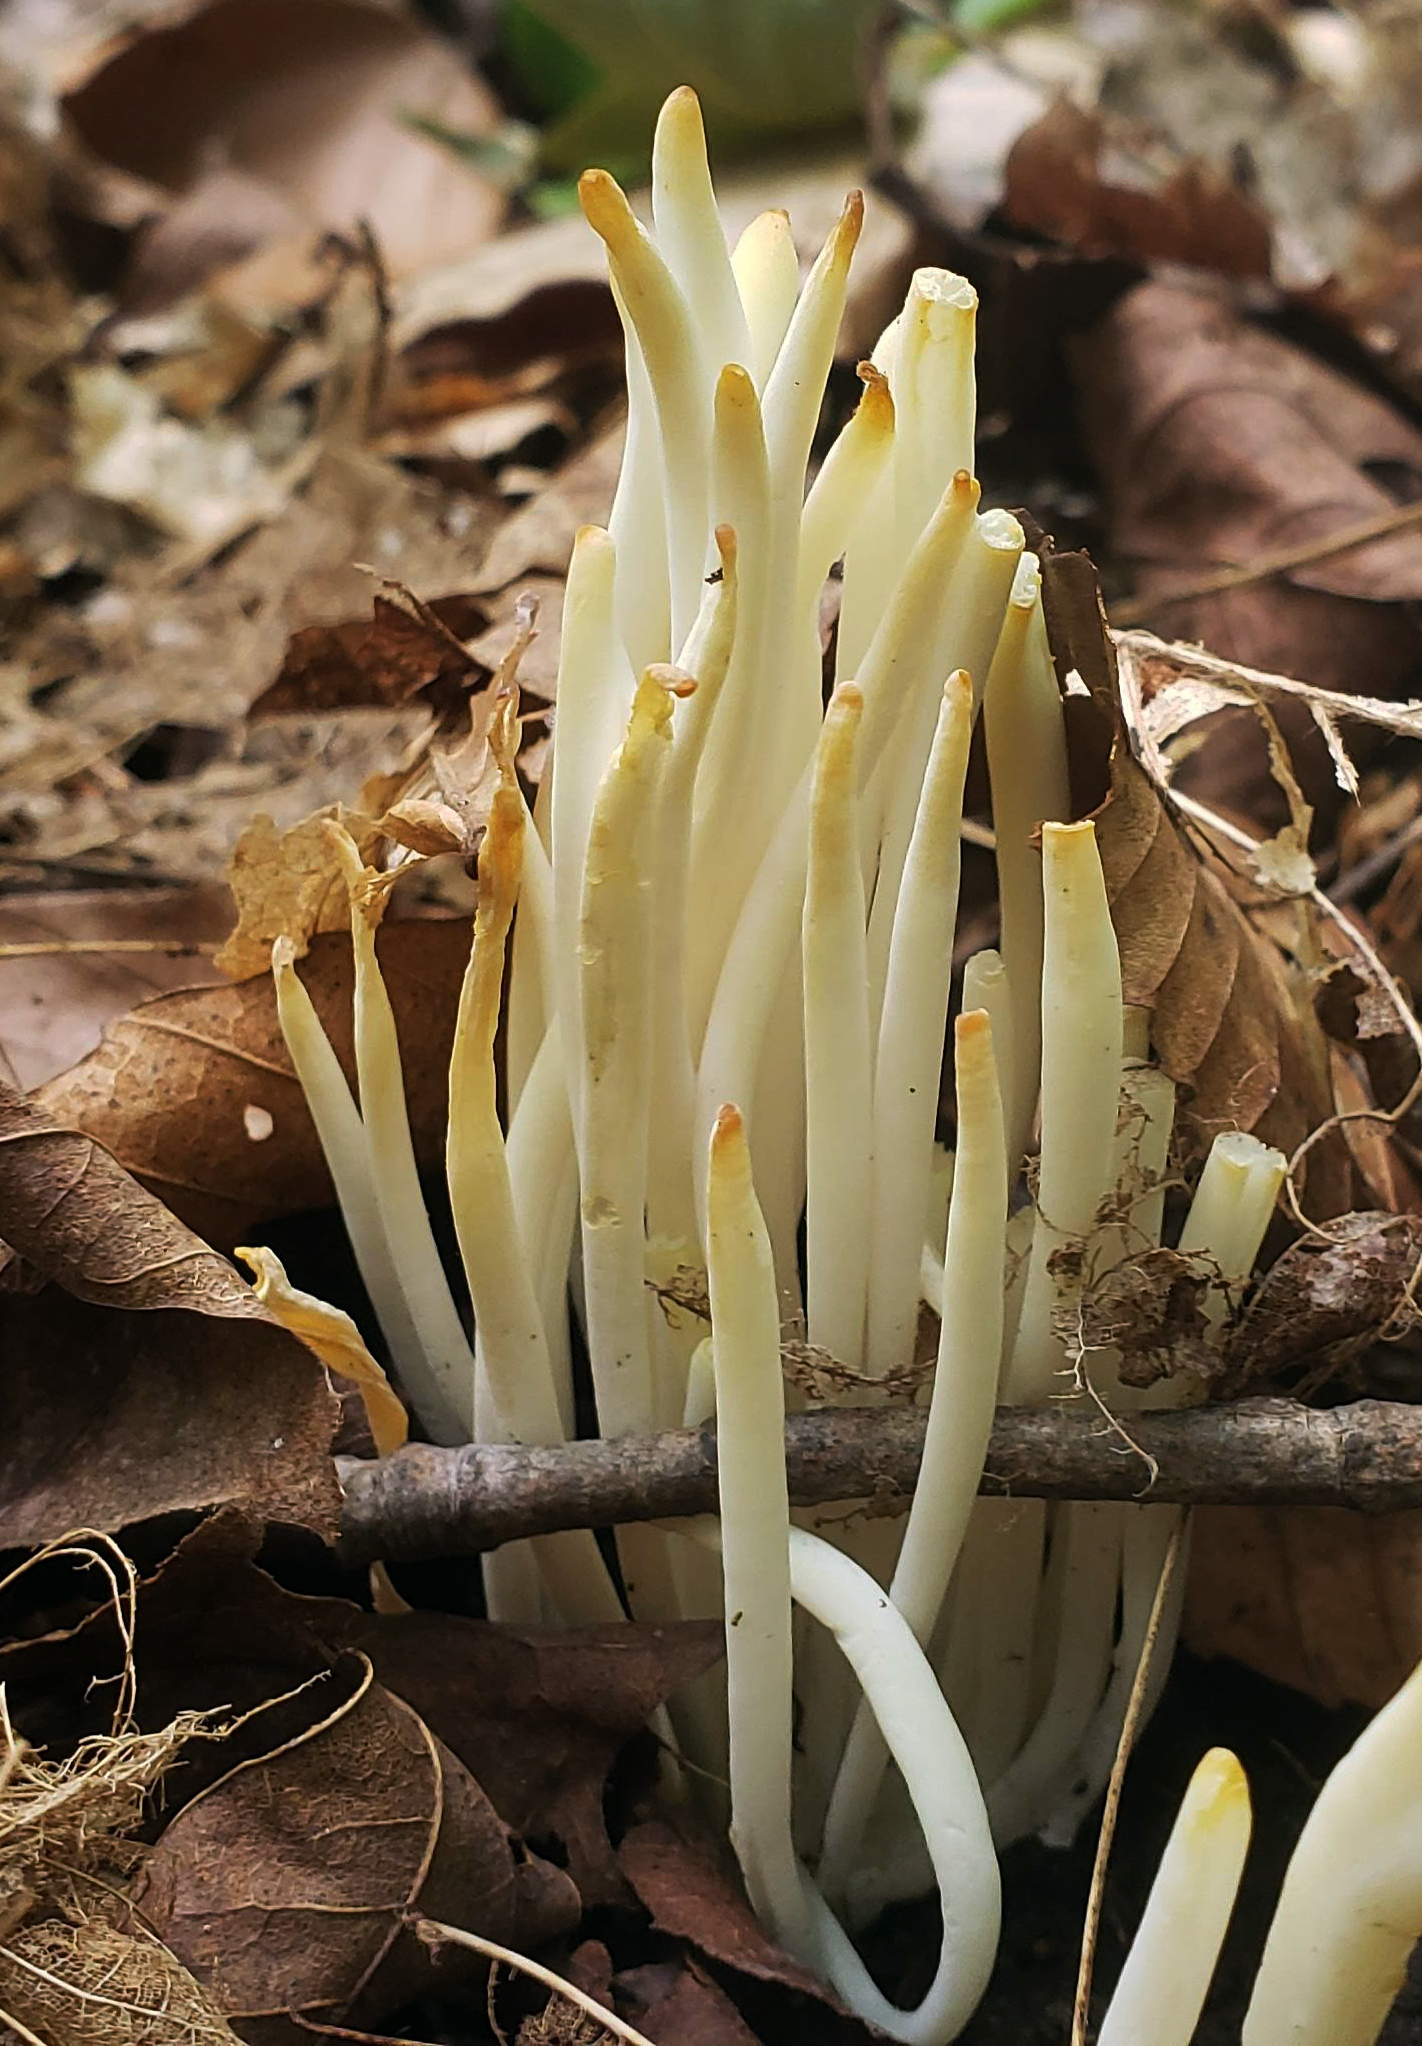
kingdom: Fungi
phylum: Basidiomycota
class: Agaricomycetes
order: Agaricales
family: Clavariaceae
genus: Clavaria
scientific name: Clavaria fragilis
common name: White spindles
